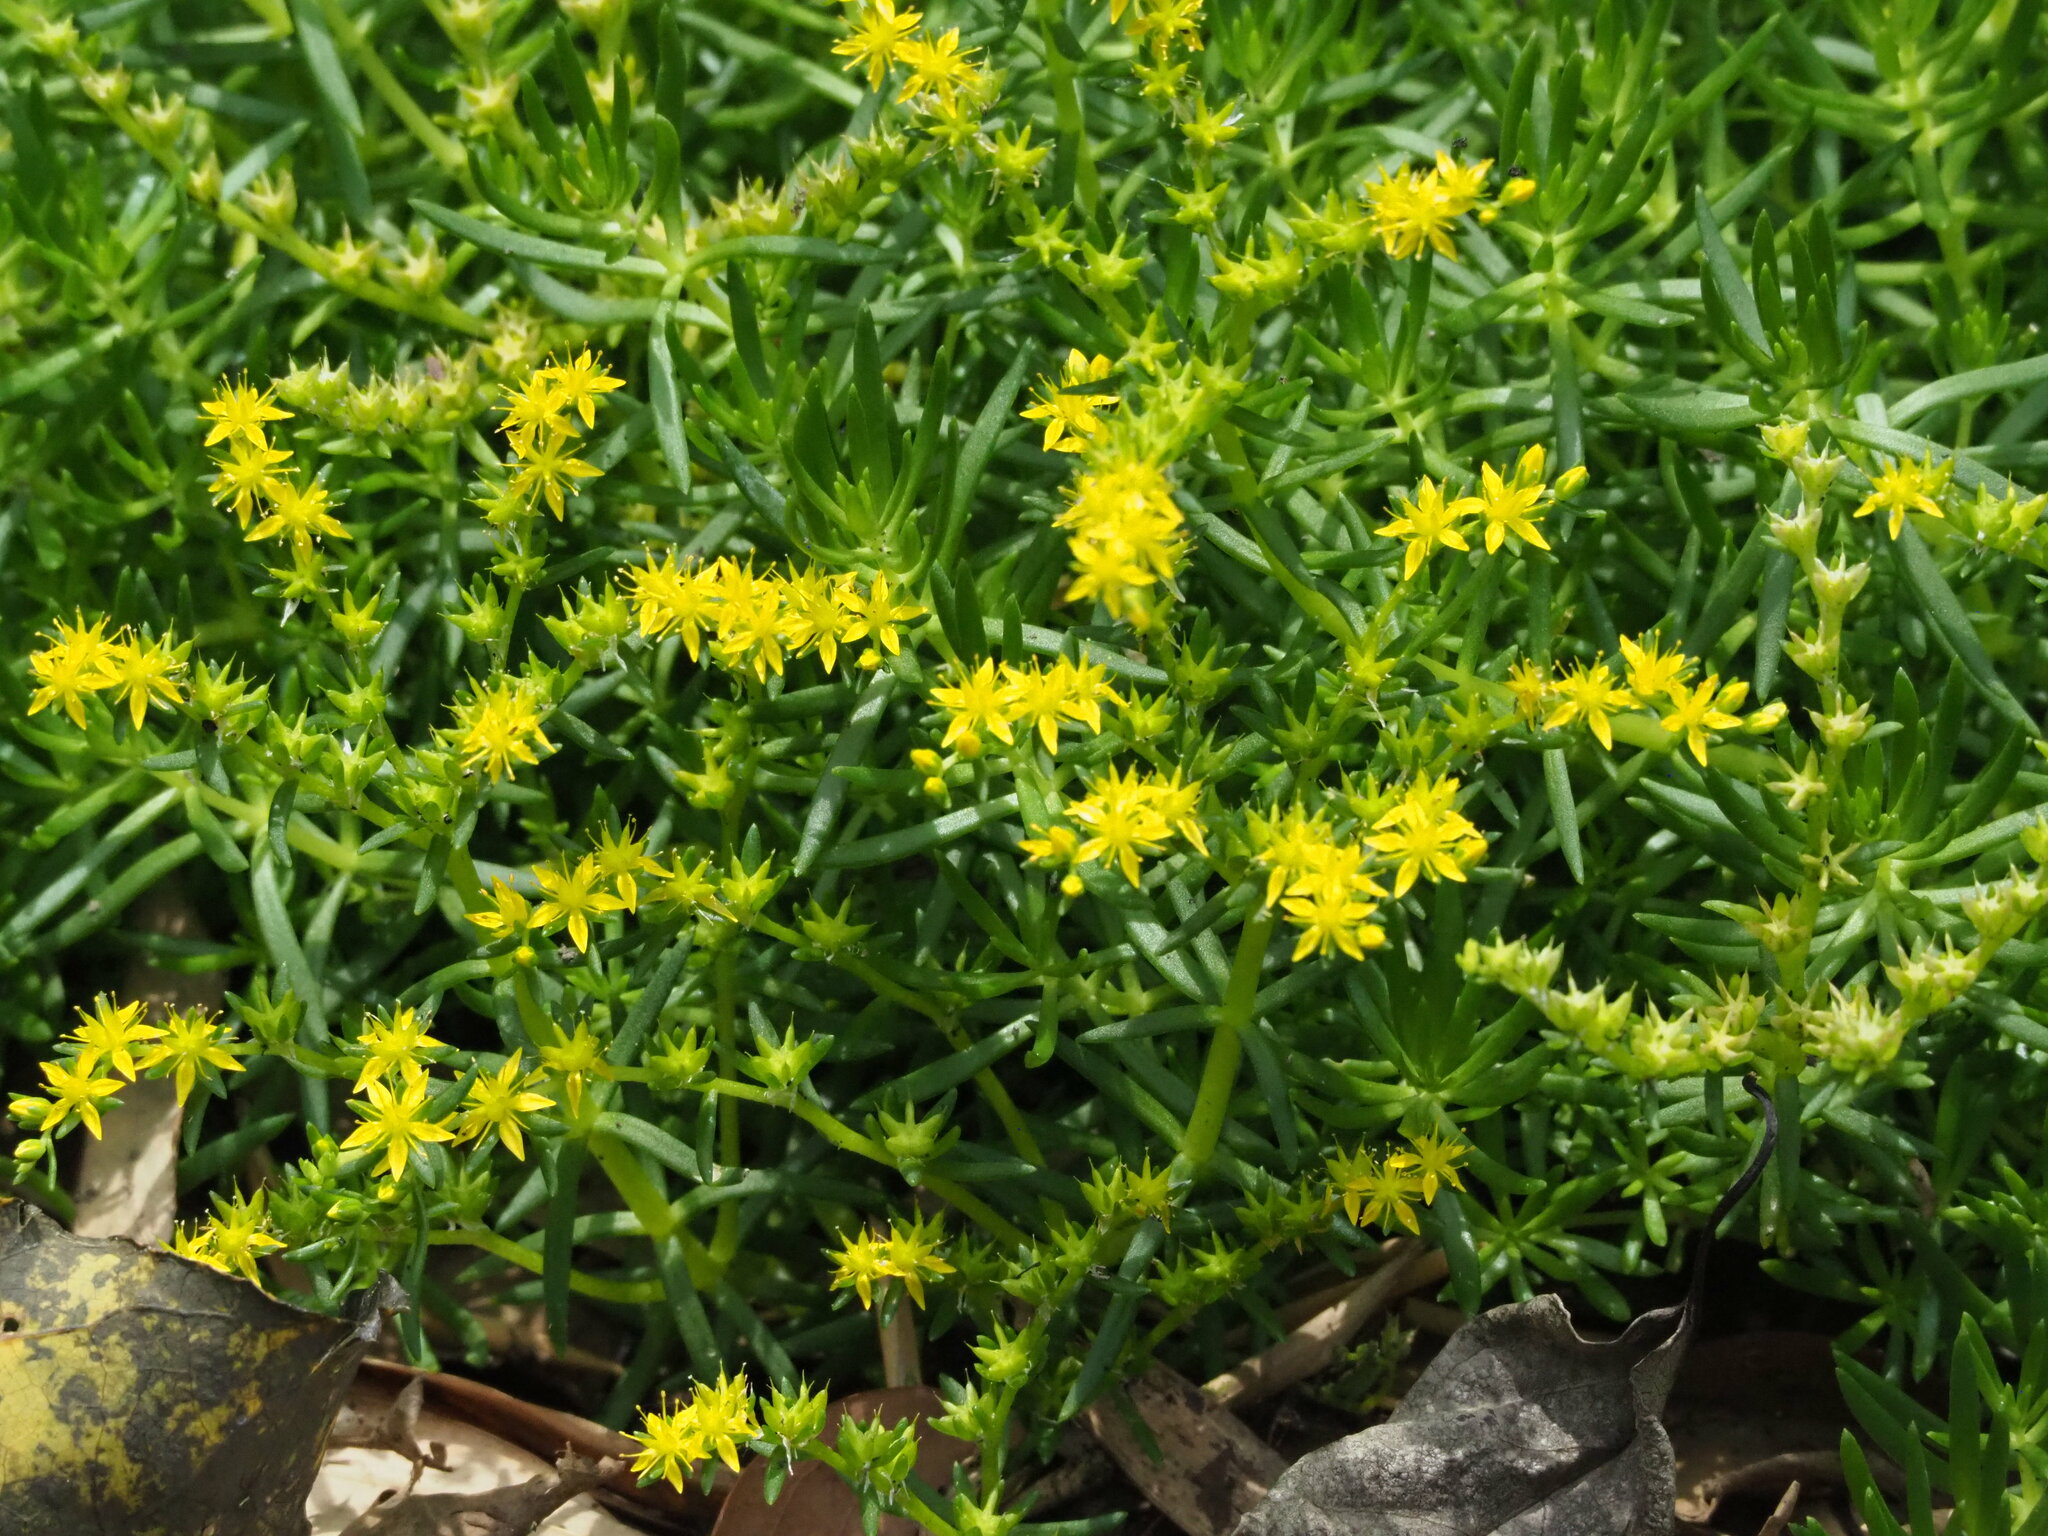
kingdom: Plantae
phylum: Tracheophyta
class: Magnoliopsida
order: Saxifragales
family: Crassulaceae
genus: Sedum
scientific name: Sedum mexicanum
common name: Mexican stonecrop
